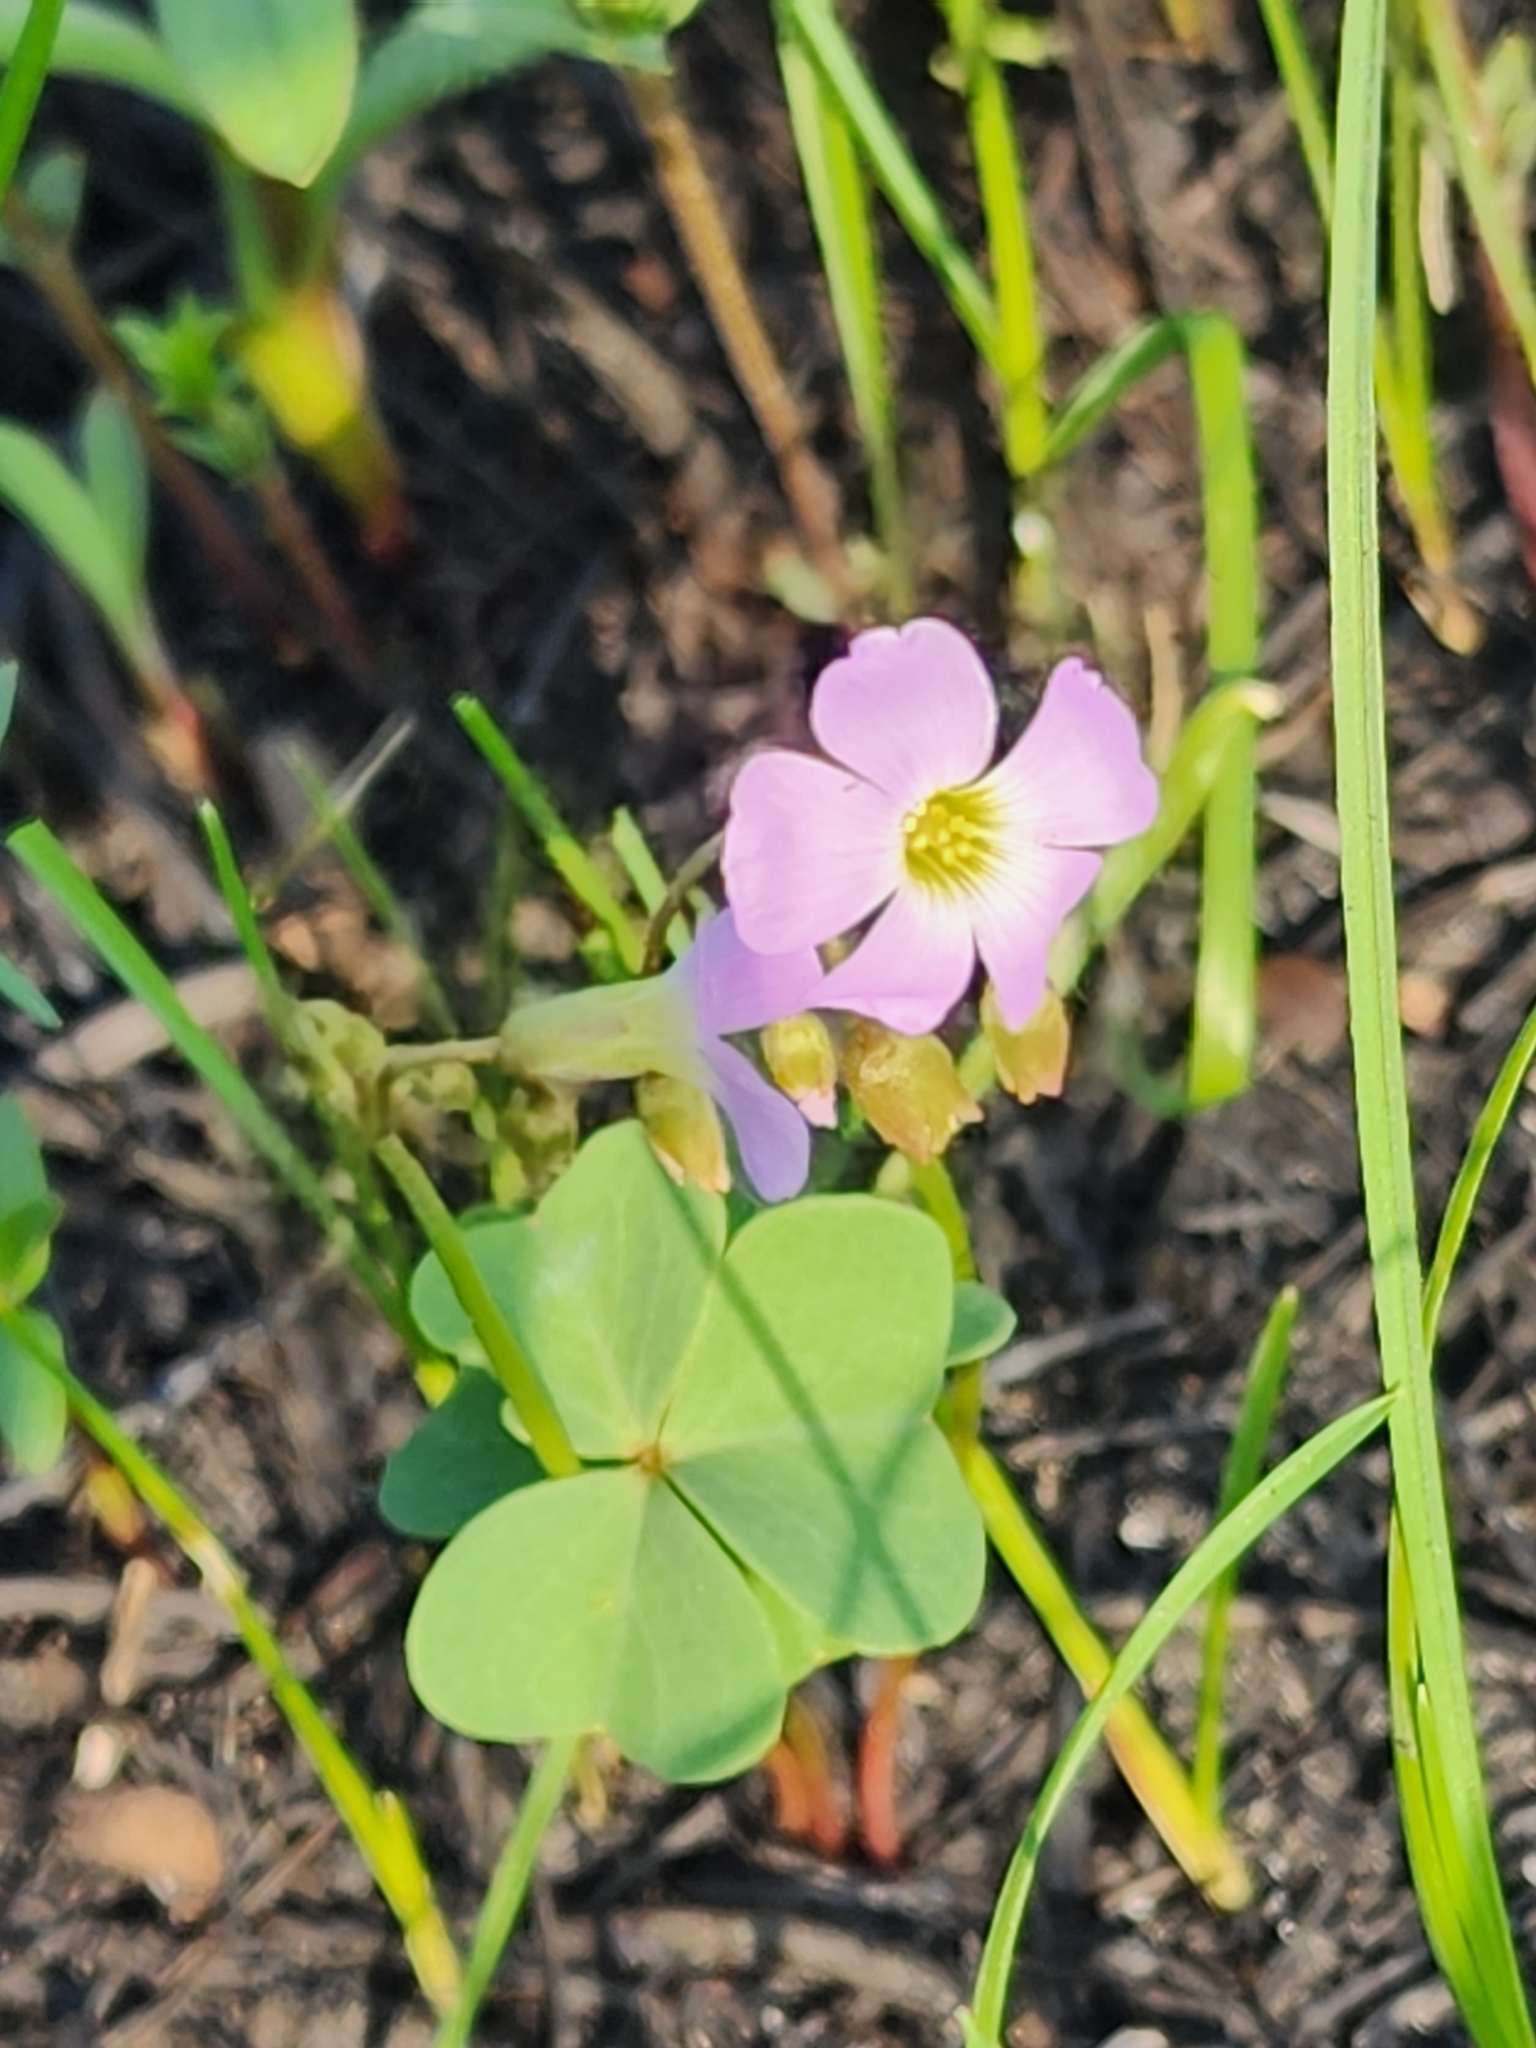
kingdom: Plantae
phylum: Tracheophyta
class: Magnoliopsida
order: Oxalidales
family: Oxalidaceae
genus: Oxalis
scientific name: Oxalis violacea
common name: Violet wood-sorrel
